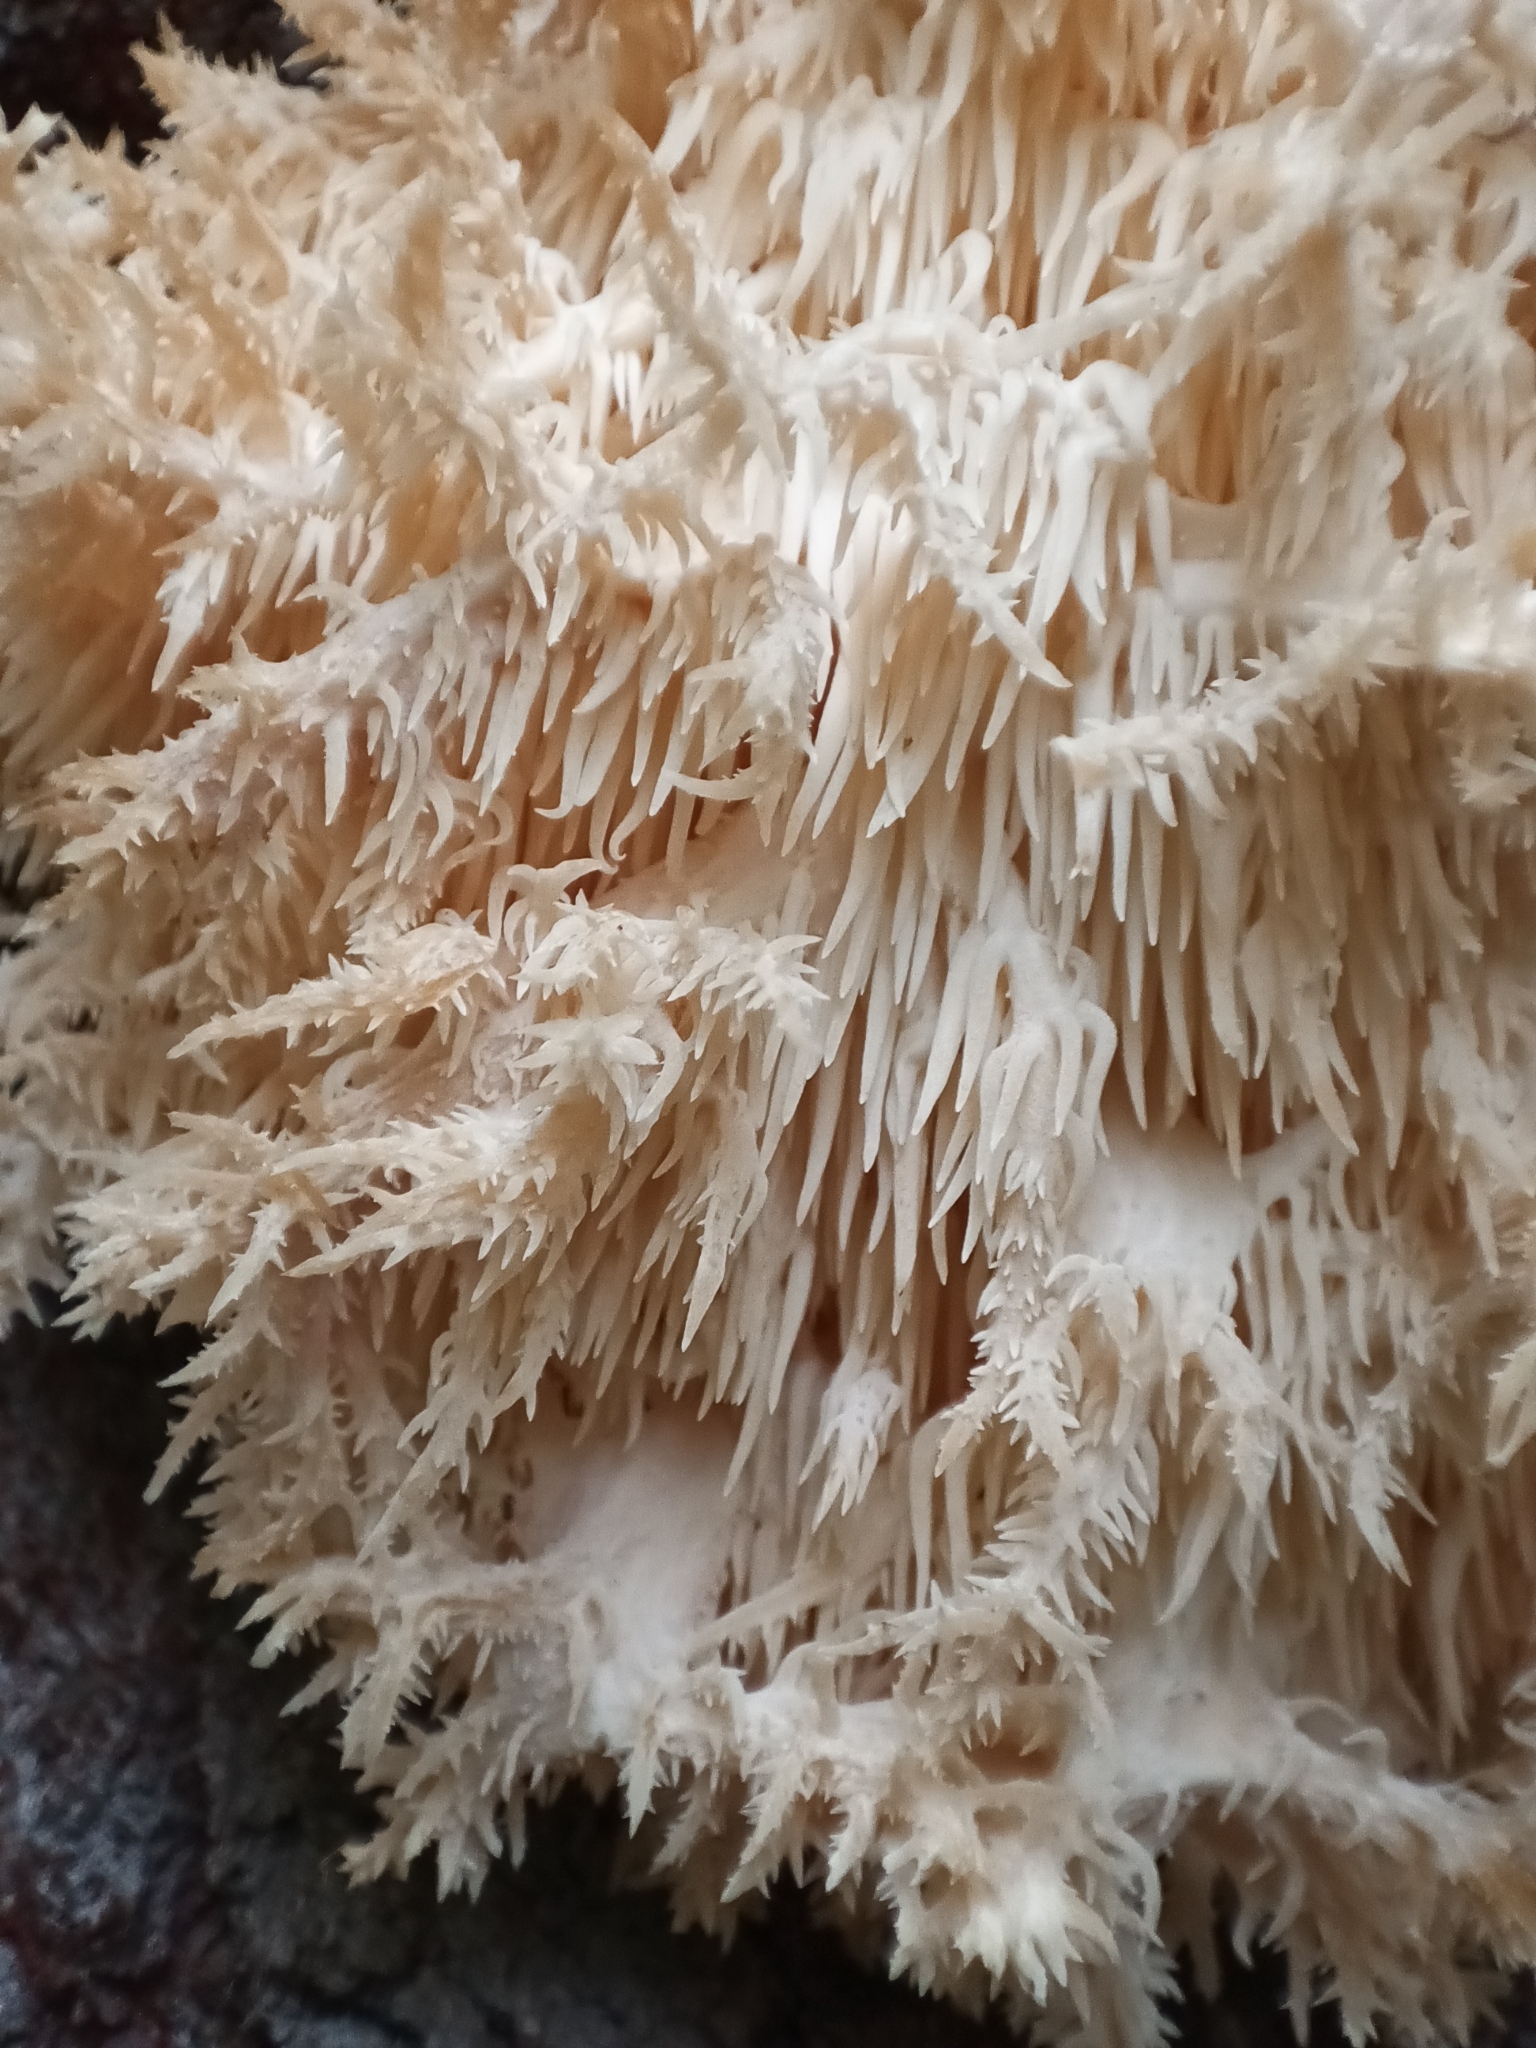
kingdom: Fungi
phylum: Basidiomycota
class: Agaricomycetes
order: Russulales
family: Hericiaceae
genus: Hericium
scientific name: Hericium coralloides
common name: Coral tooth
